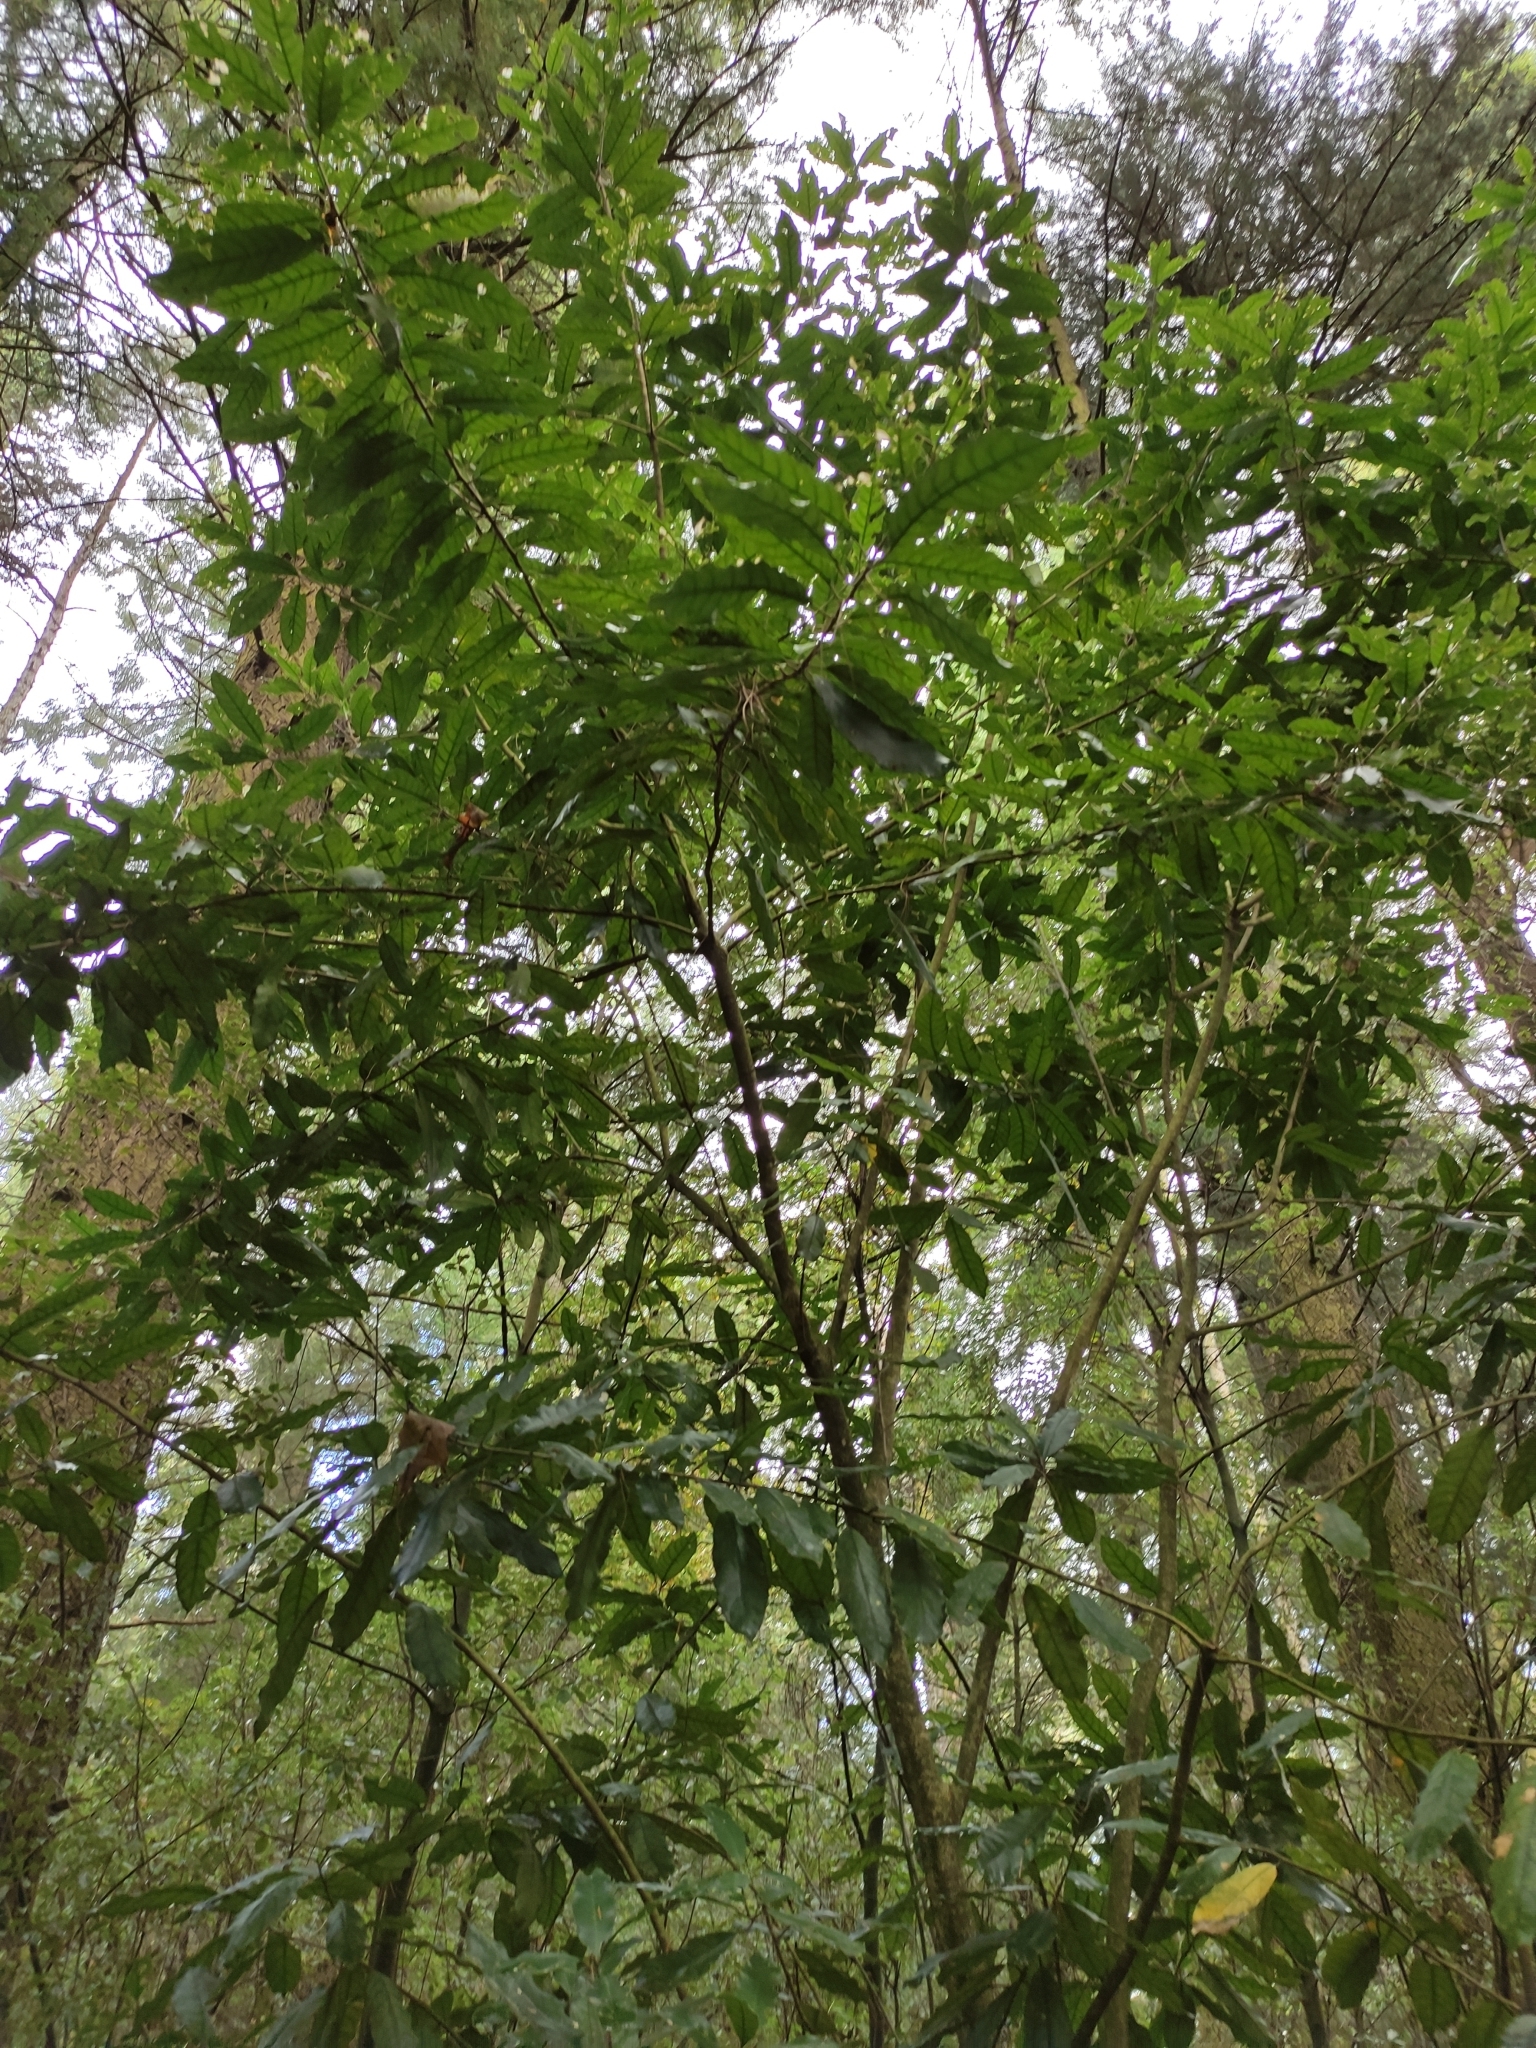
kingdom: Plantae
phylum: Tracheophyta
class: Magnoliopsida
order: Malpighiales
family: Violaceae
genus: Melicytus
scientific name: Melicytus ramiflorus
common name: Mahoe
